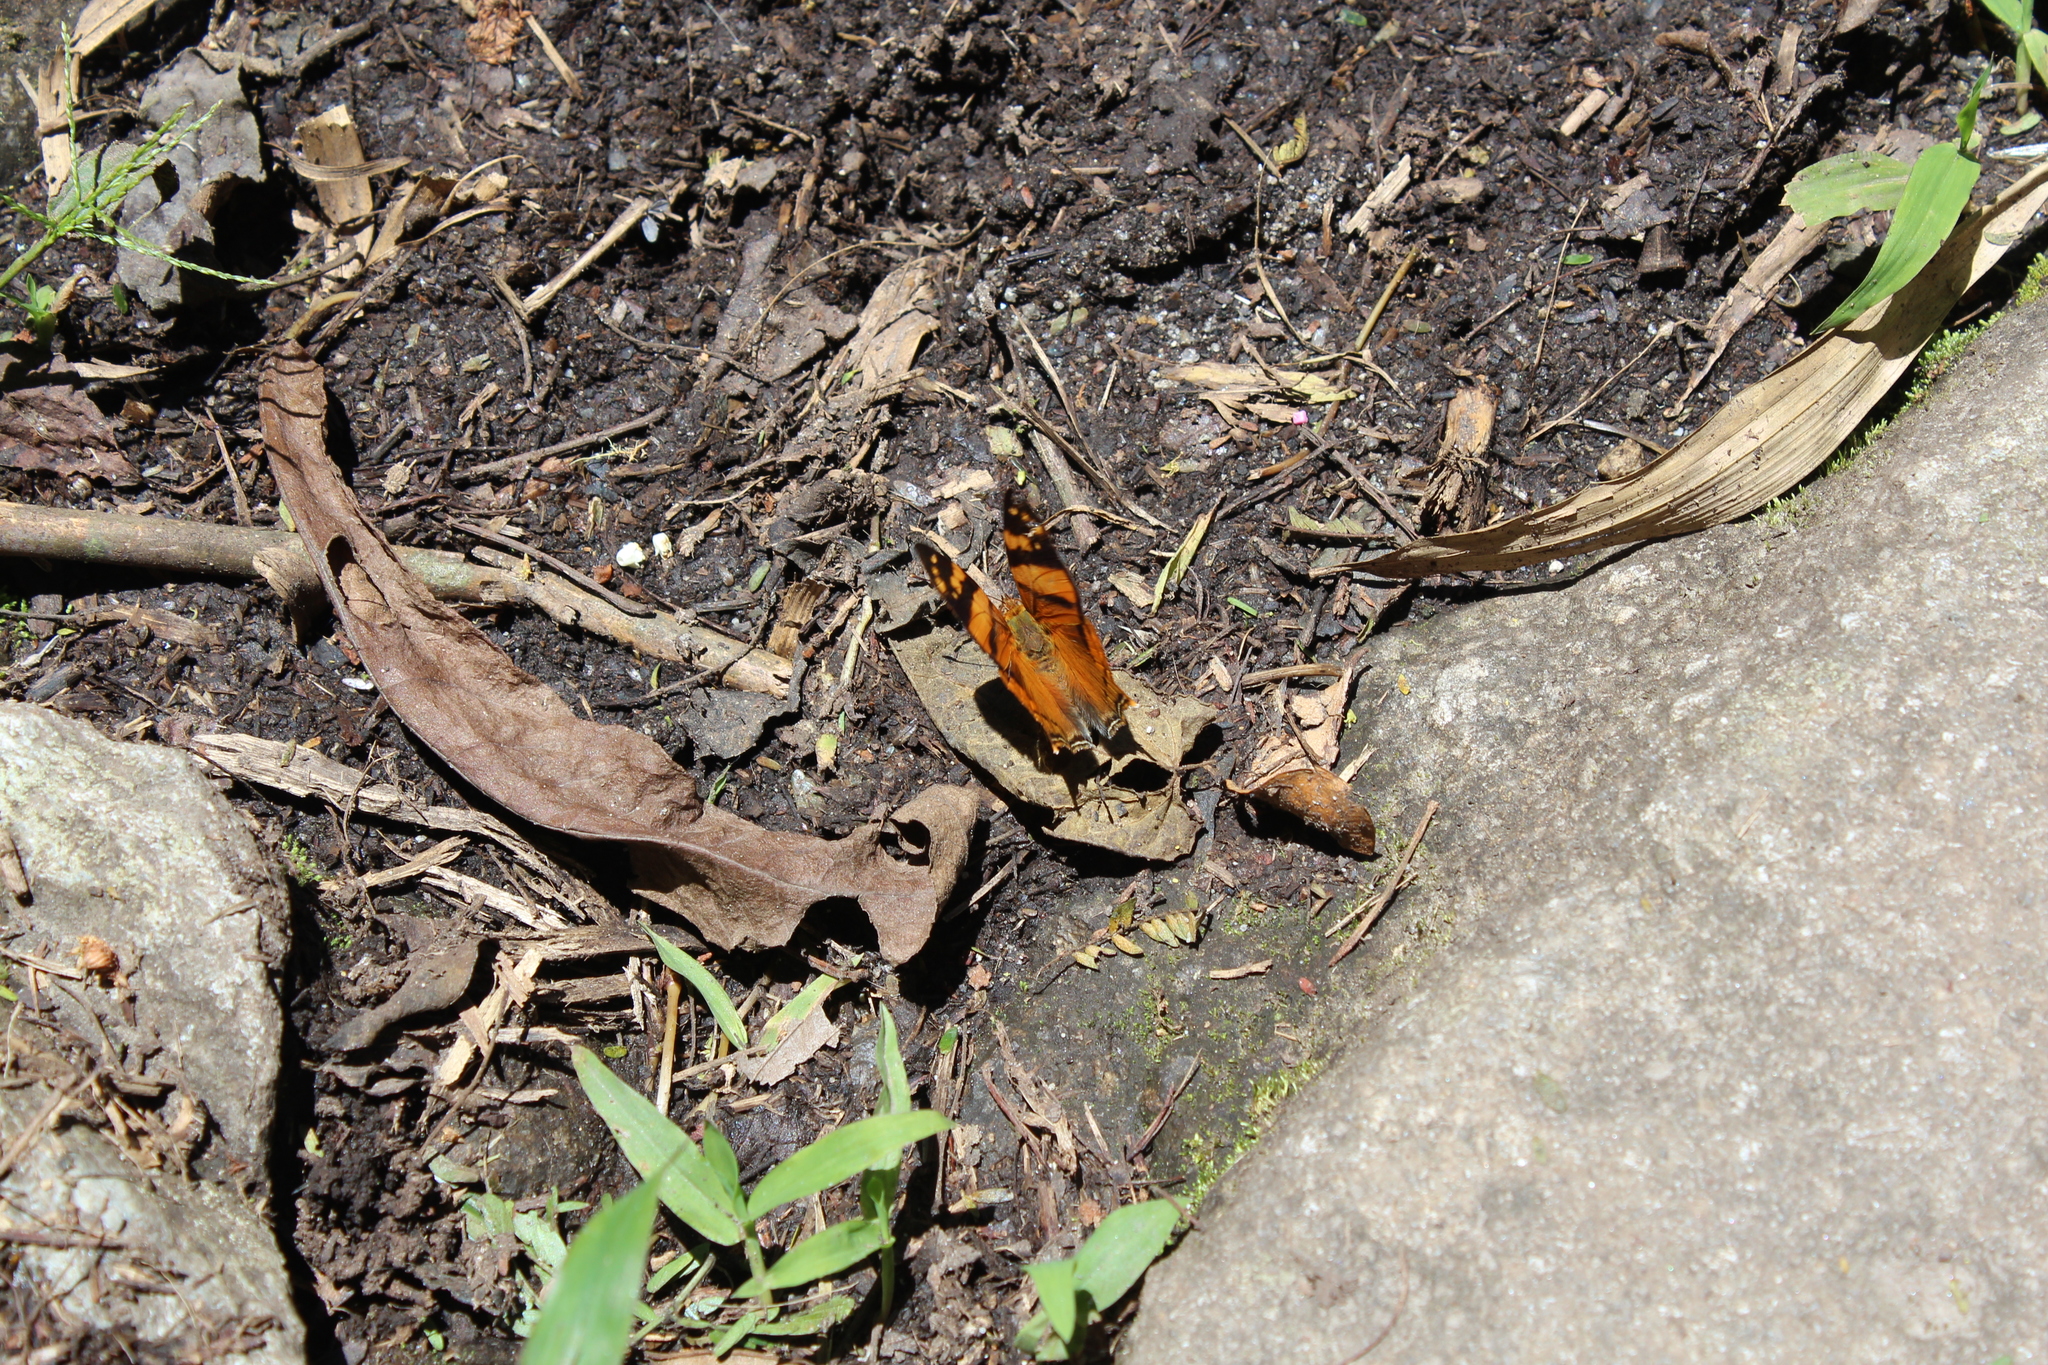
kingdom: Animalia
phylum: Arthropoda
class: Insecta
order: Lepidoptera
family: Nymphalidae
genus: Hypanartia
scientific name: Hypanartia lethe
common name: Orange mapwing
